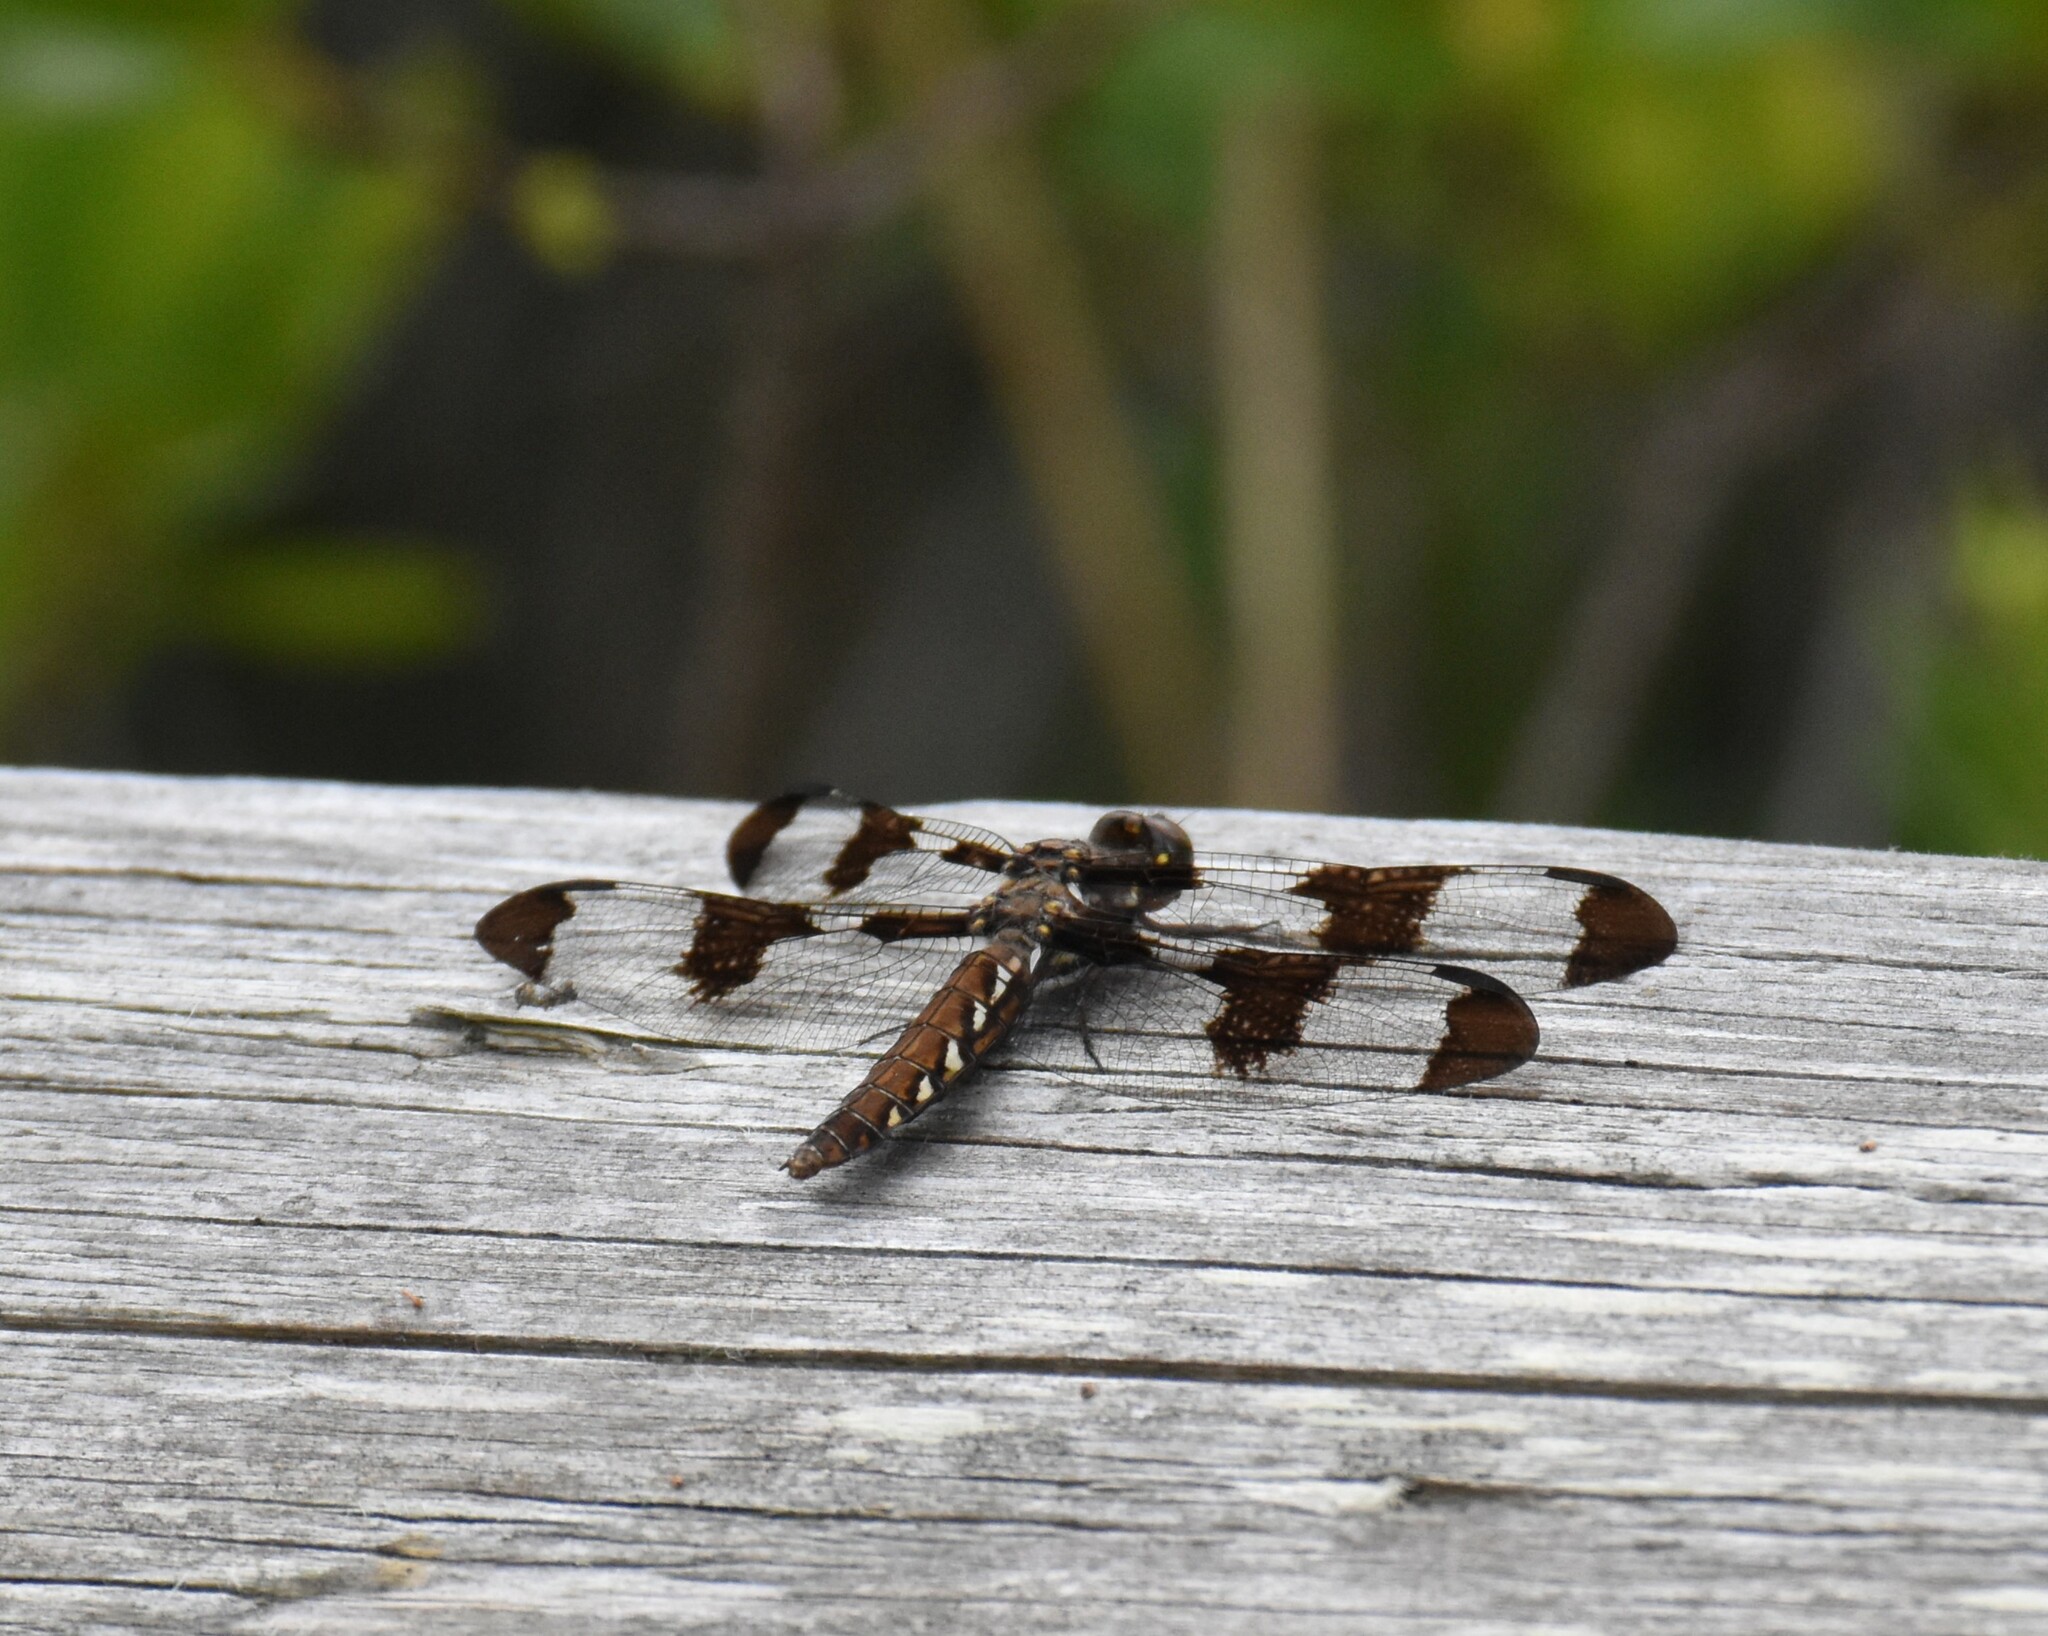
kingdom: Animalia
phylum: Arthropoda
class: Insecta
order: Odonata
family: Libellulidae
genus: Plathemis
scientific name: Plathemis lydia
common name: Common whitetail
